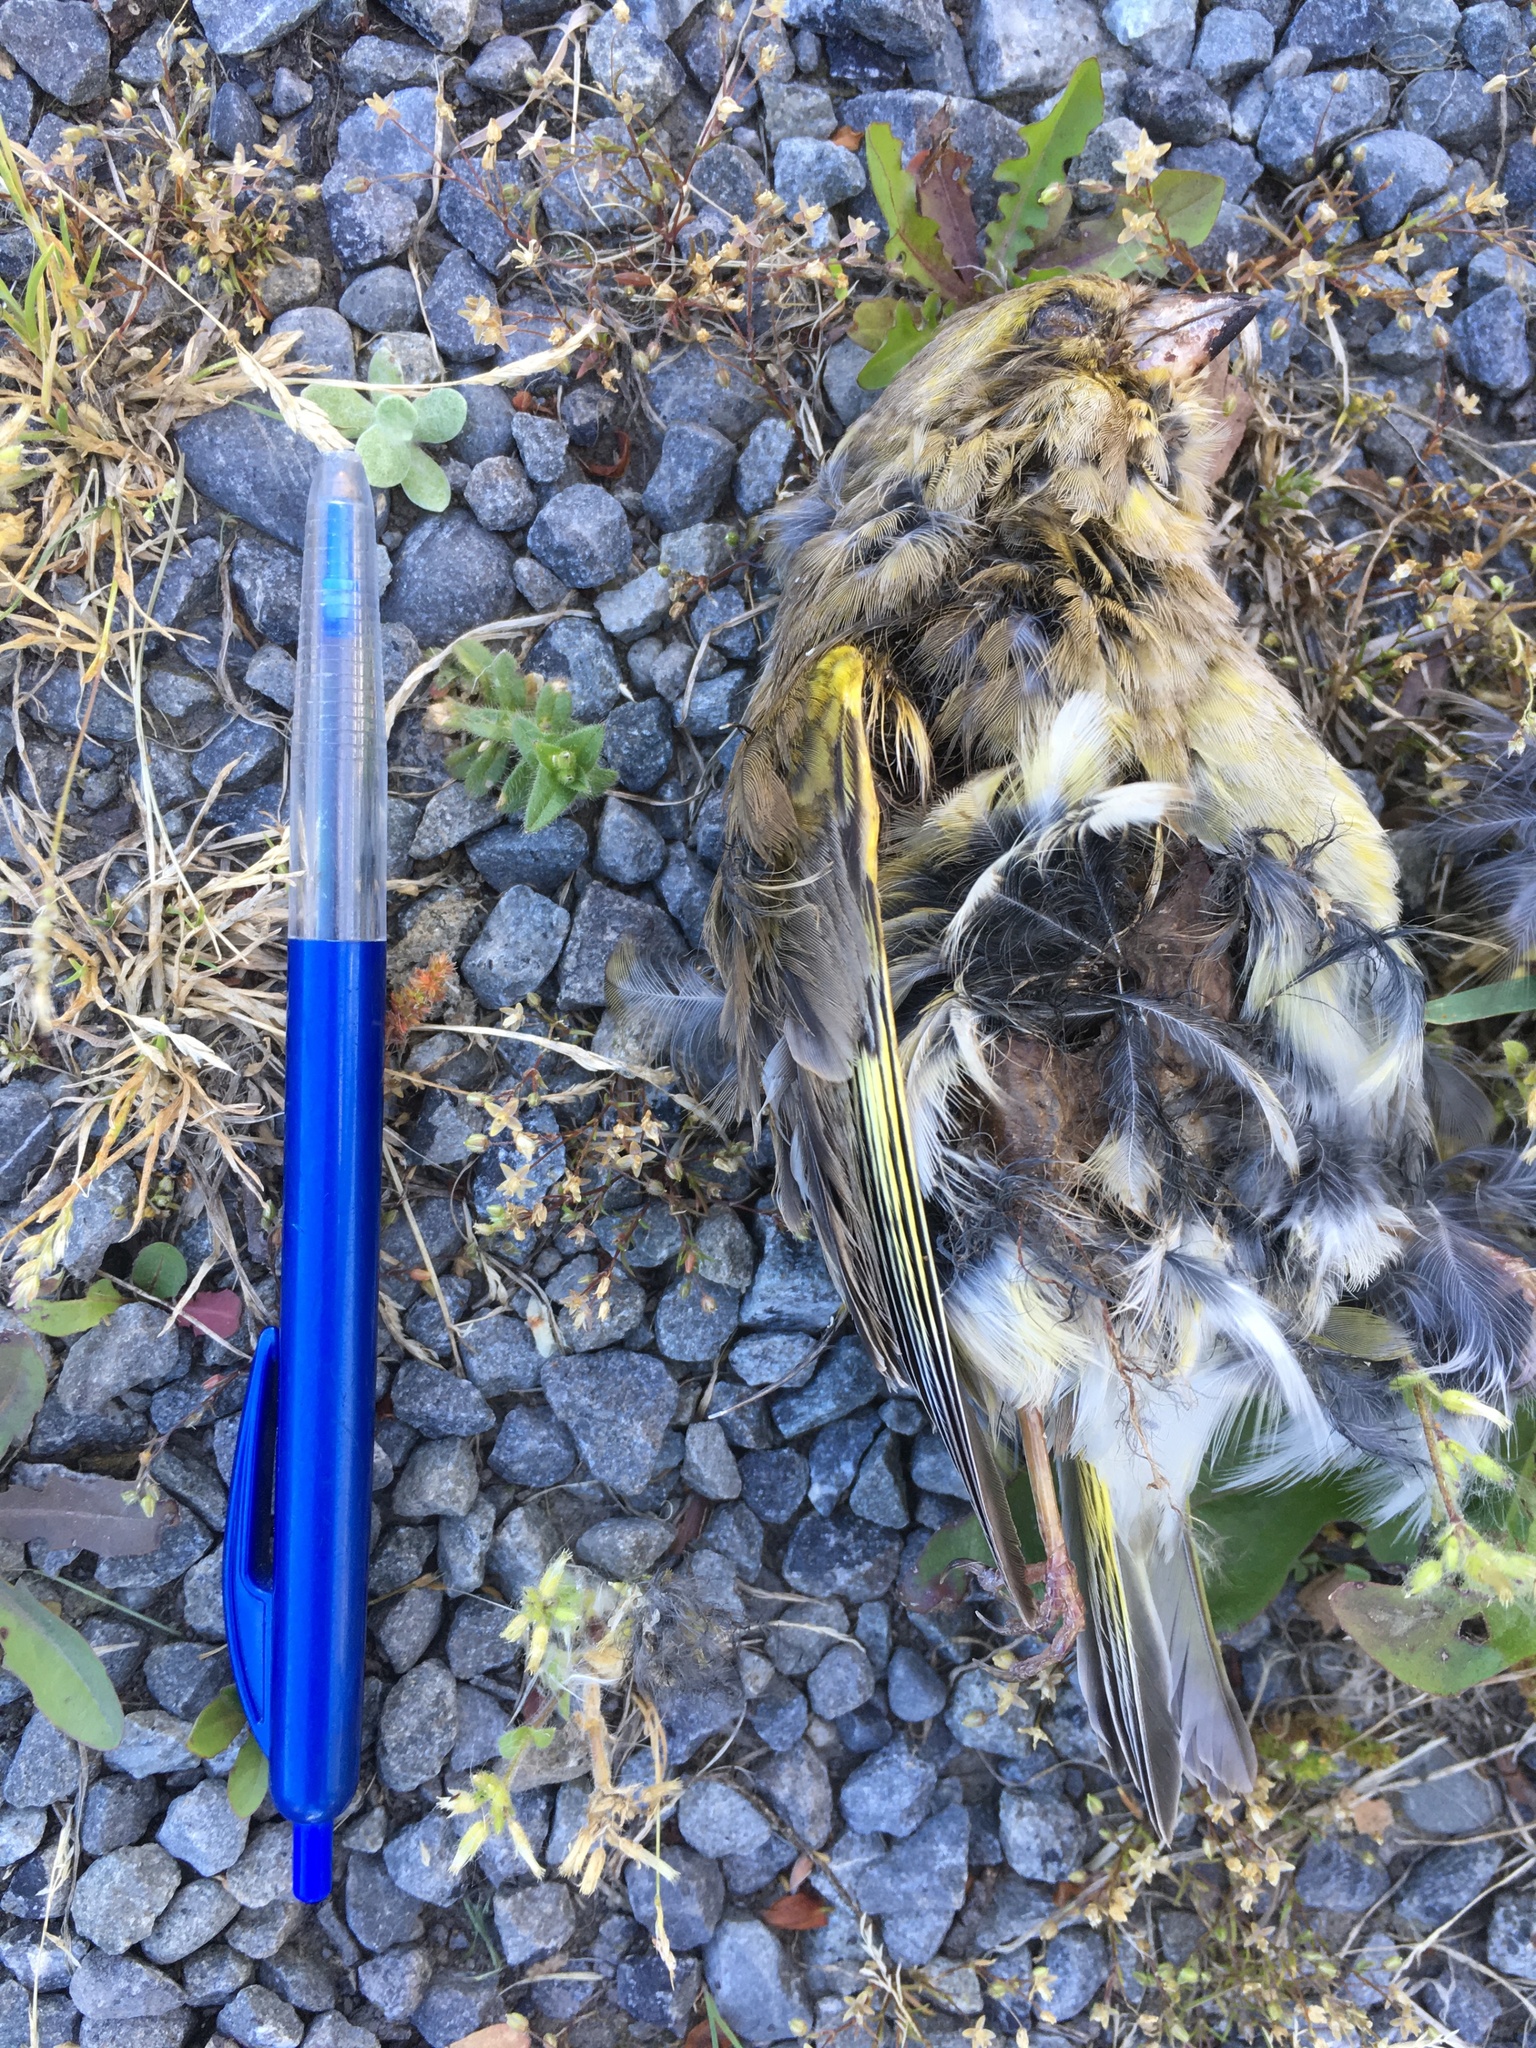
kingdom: Plantae
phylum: Tracheophyta
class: Liliopsida
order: Poales
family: Poaceae
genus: Chloris
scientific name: Chloris chloris
